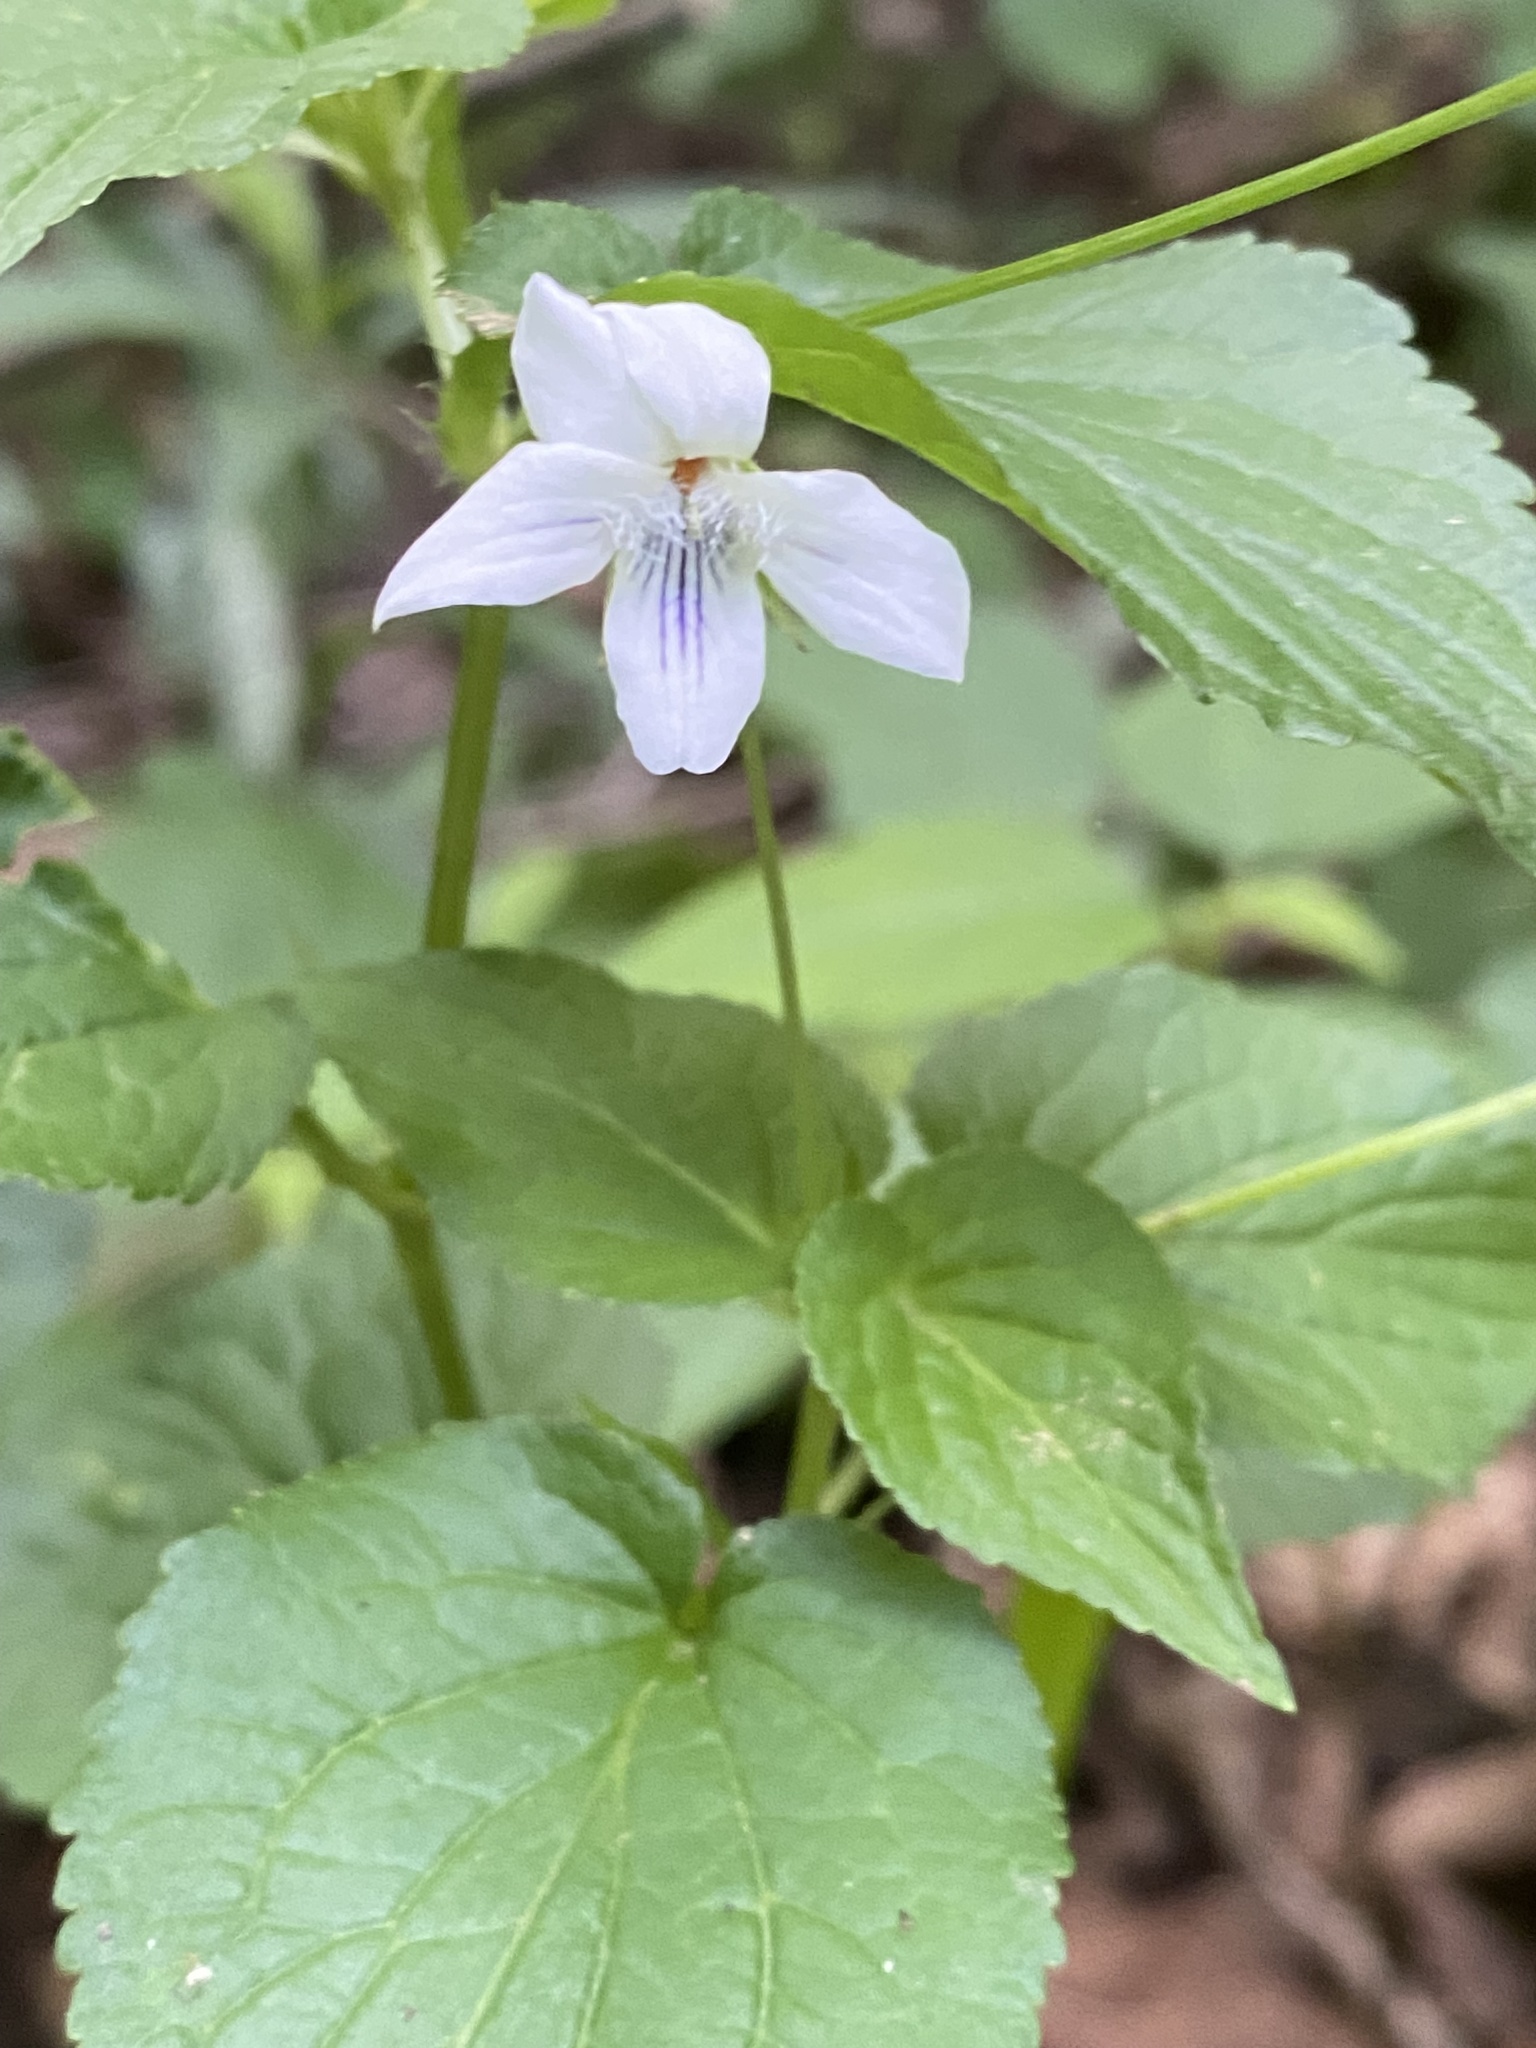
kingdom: Plantae
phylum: Tracheophyta
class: Magnoliopsida
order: Malpighiales
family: Violaceae
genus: Viola
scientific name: Viola striata
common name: Cream violet
